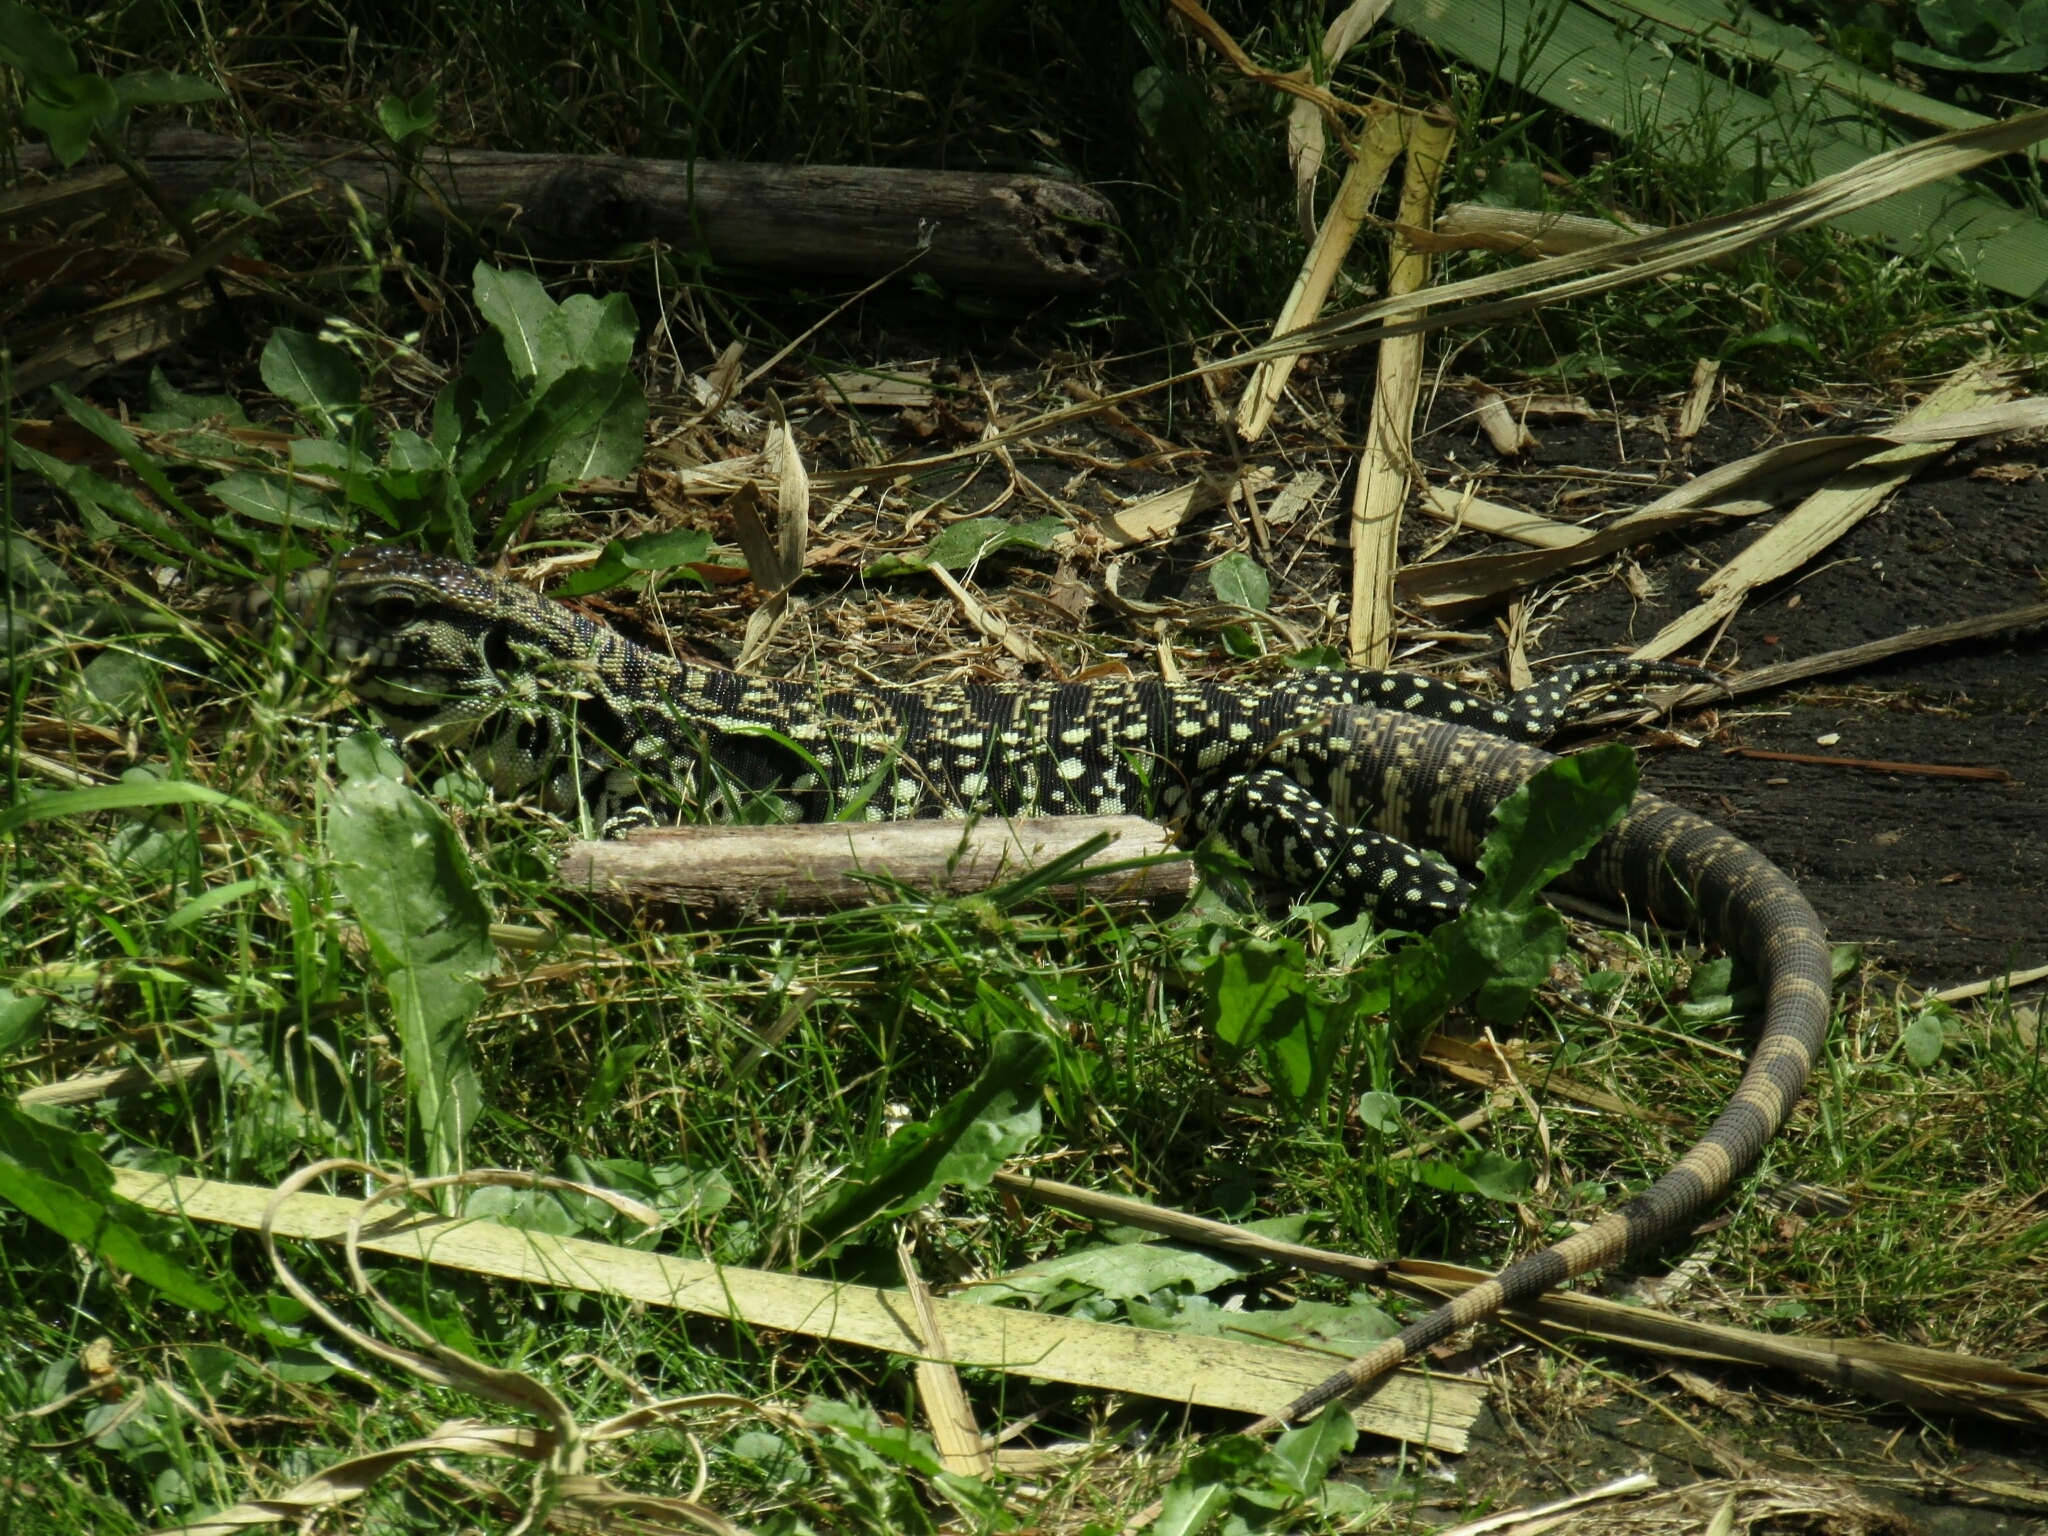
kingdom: Animalia
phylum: Chordata
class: Squamata
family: Teiidae
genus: Salvator
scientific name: Salvator merianae
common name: Argentine black and white tegu
